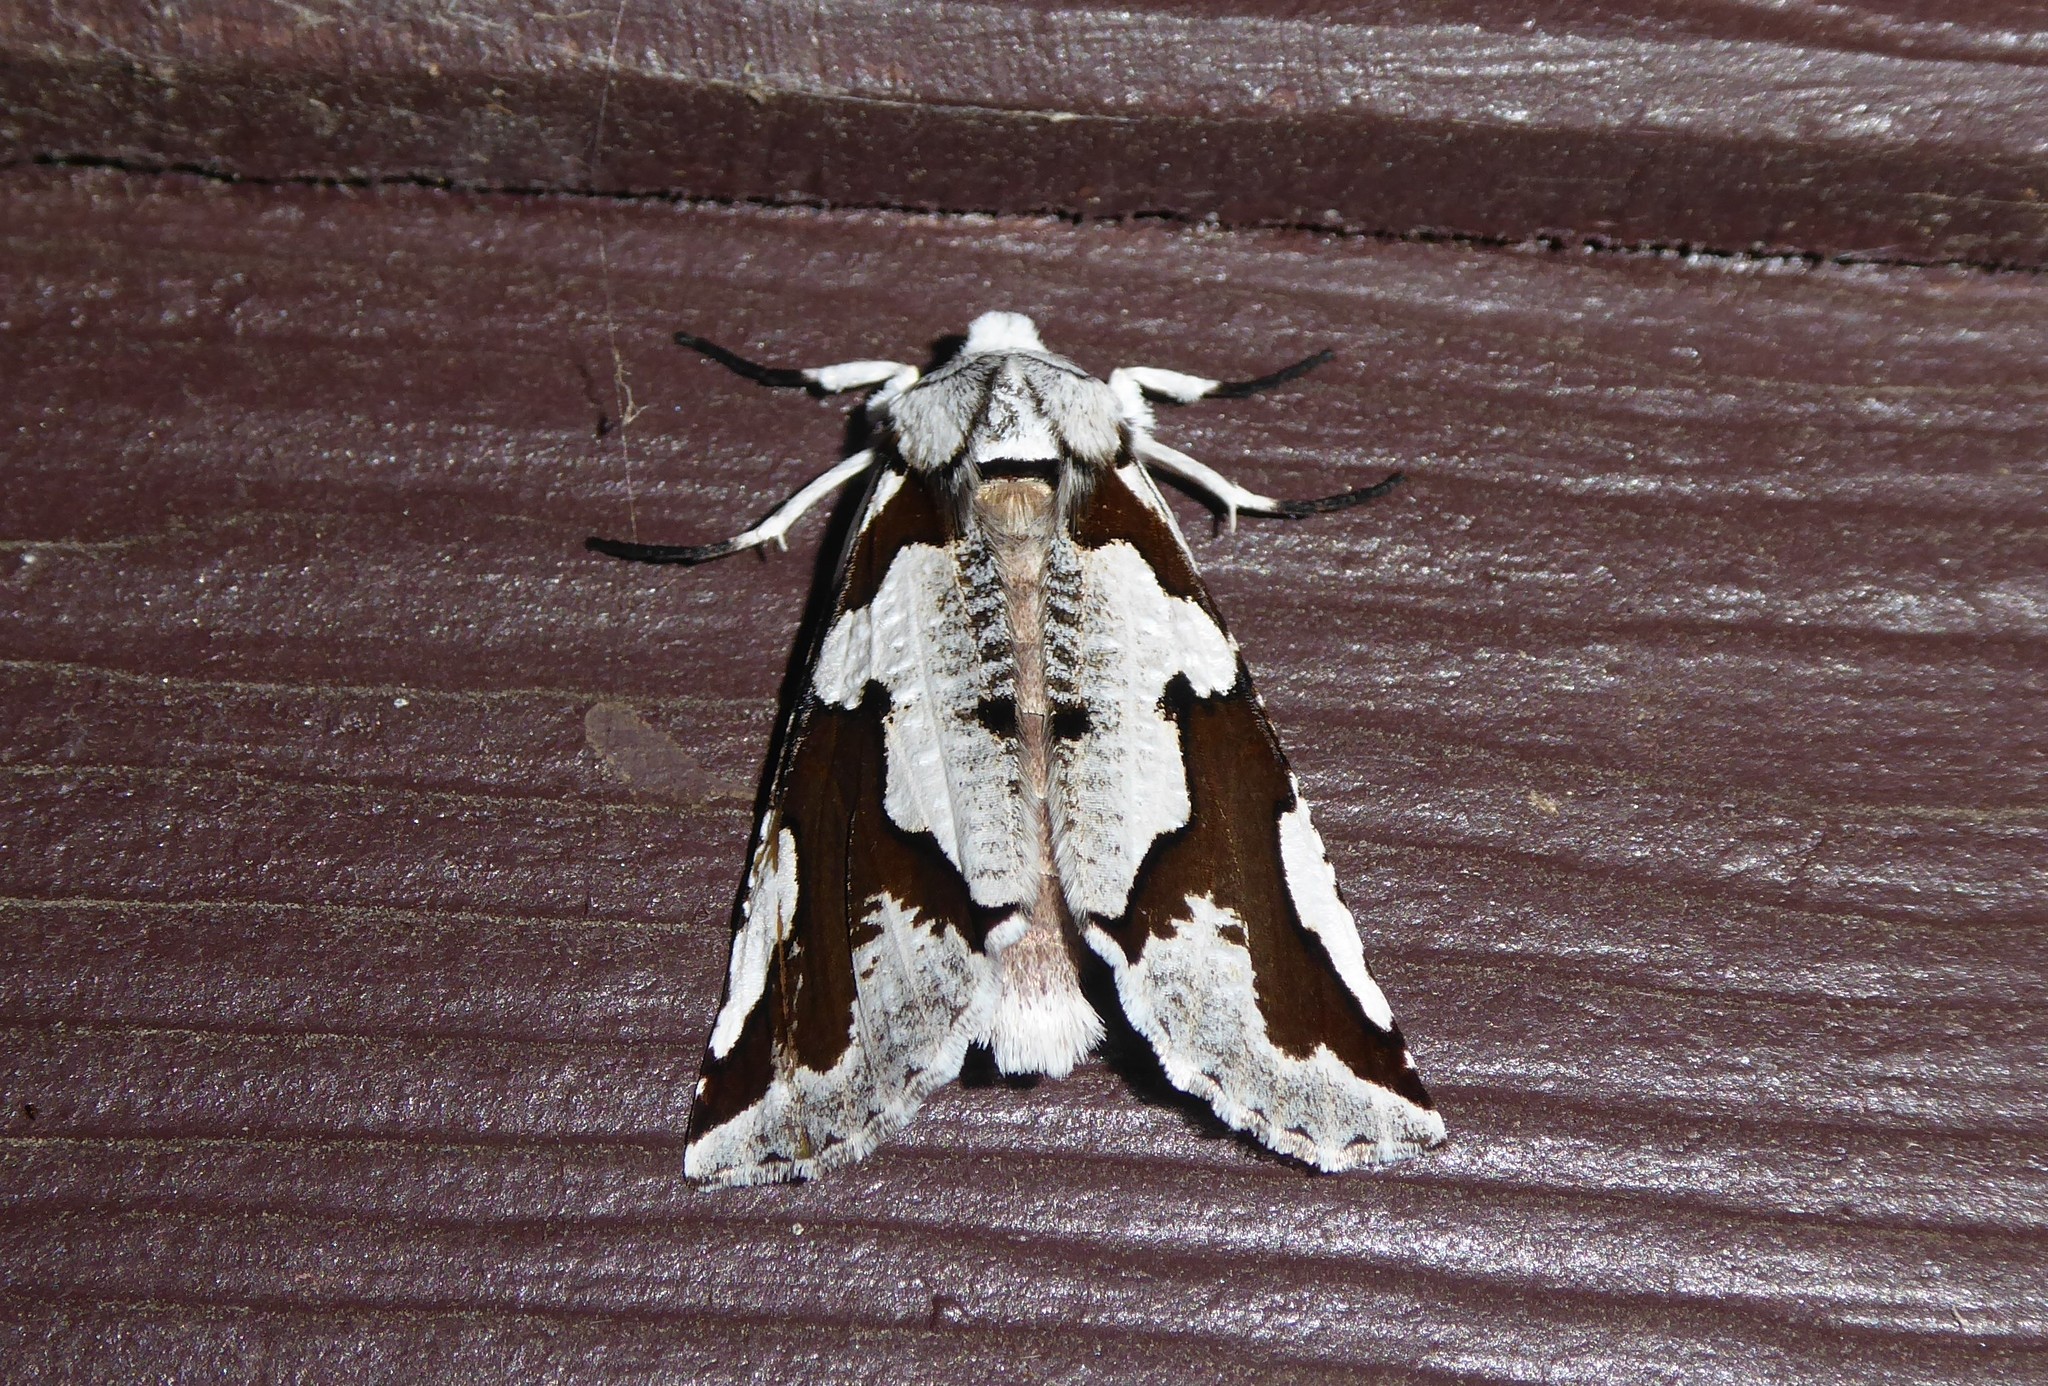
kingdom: Animalia
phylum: Arthropoda
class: Insecta
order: Lepidoptera
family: Geometridae
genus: Declana
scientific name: Declana
